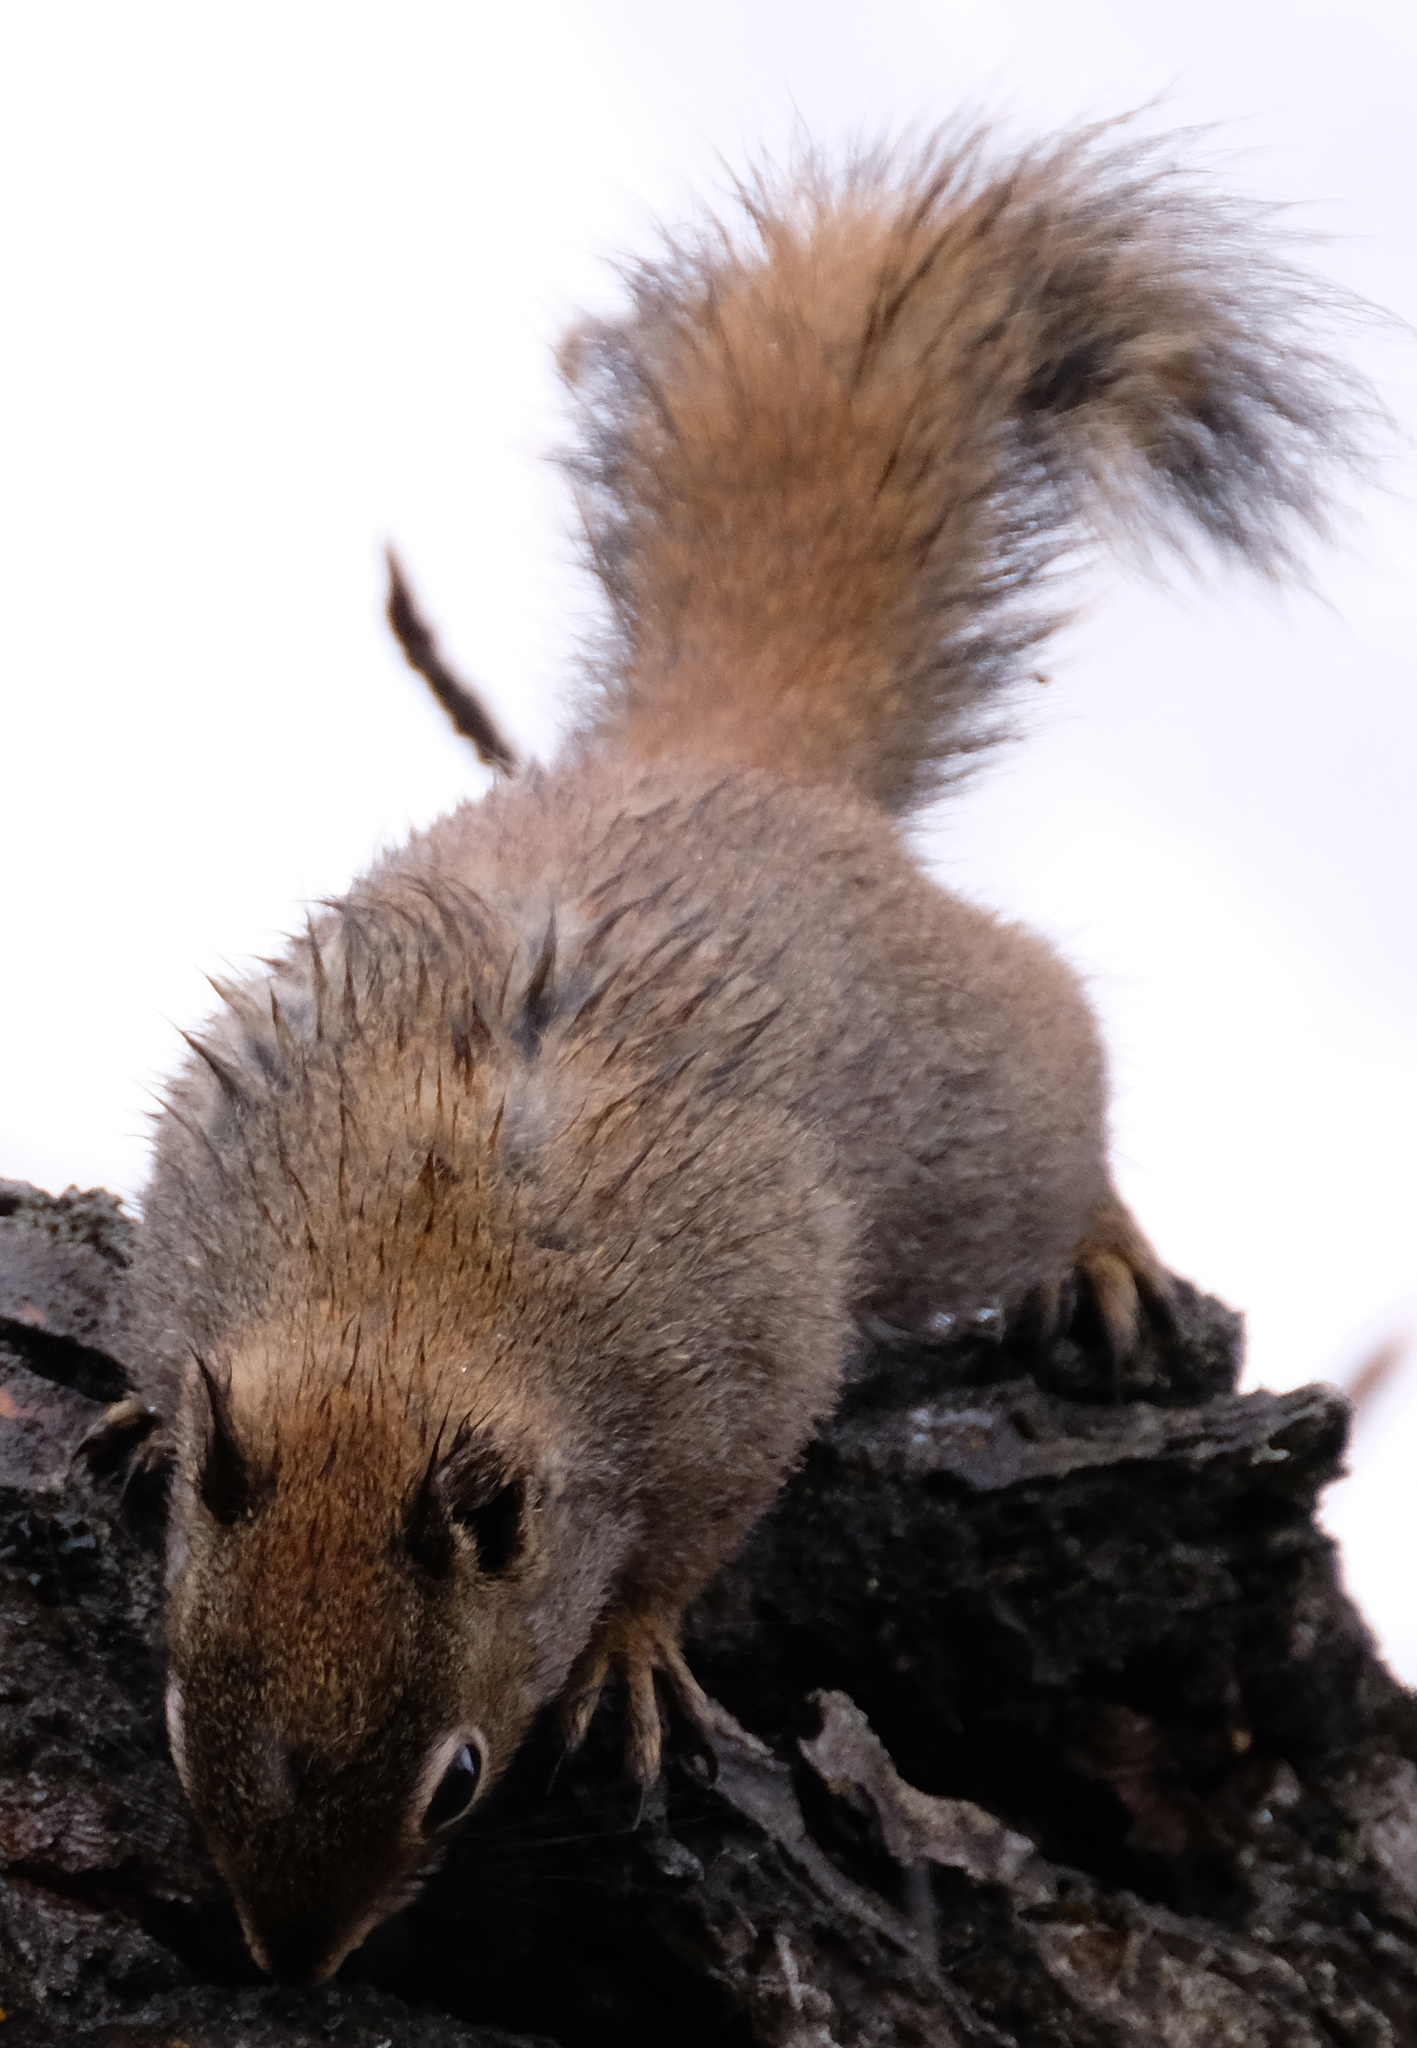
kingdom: Animalia
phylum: Chordata
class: Mammalia
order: Rodentia
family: Sciuridae
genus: Tamiasciurus
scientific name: Tamiasciurus hudsonicus
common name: Red squirrel
